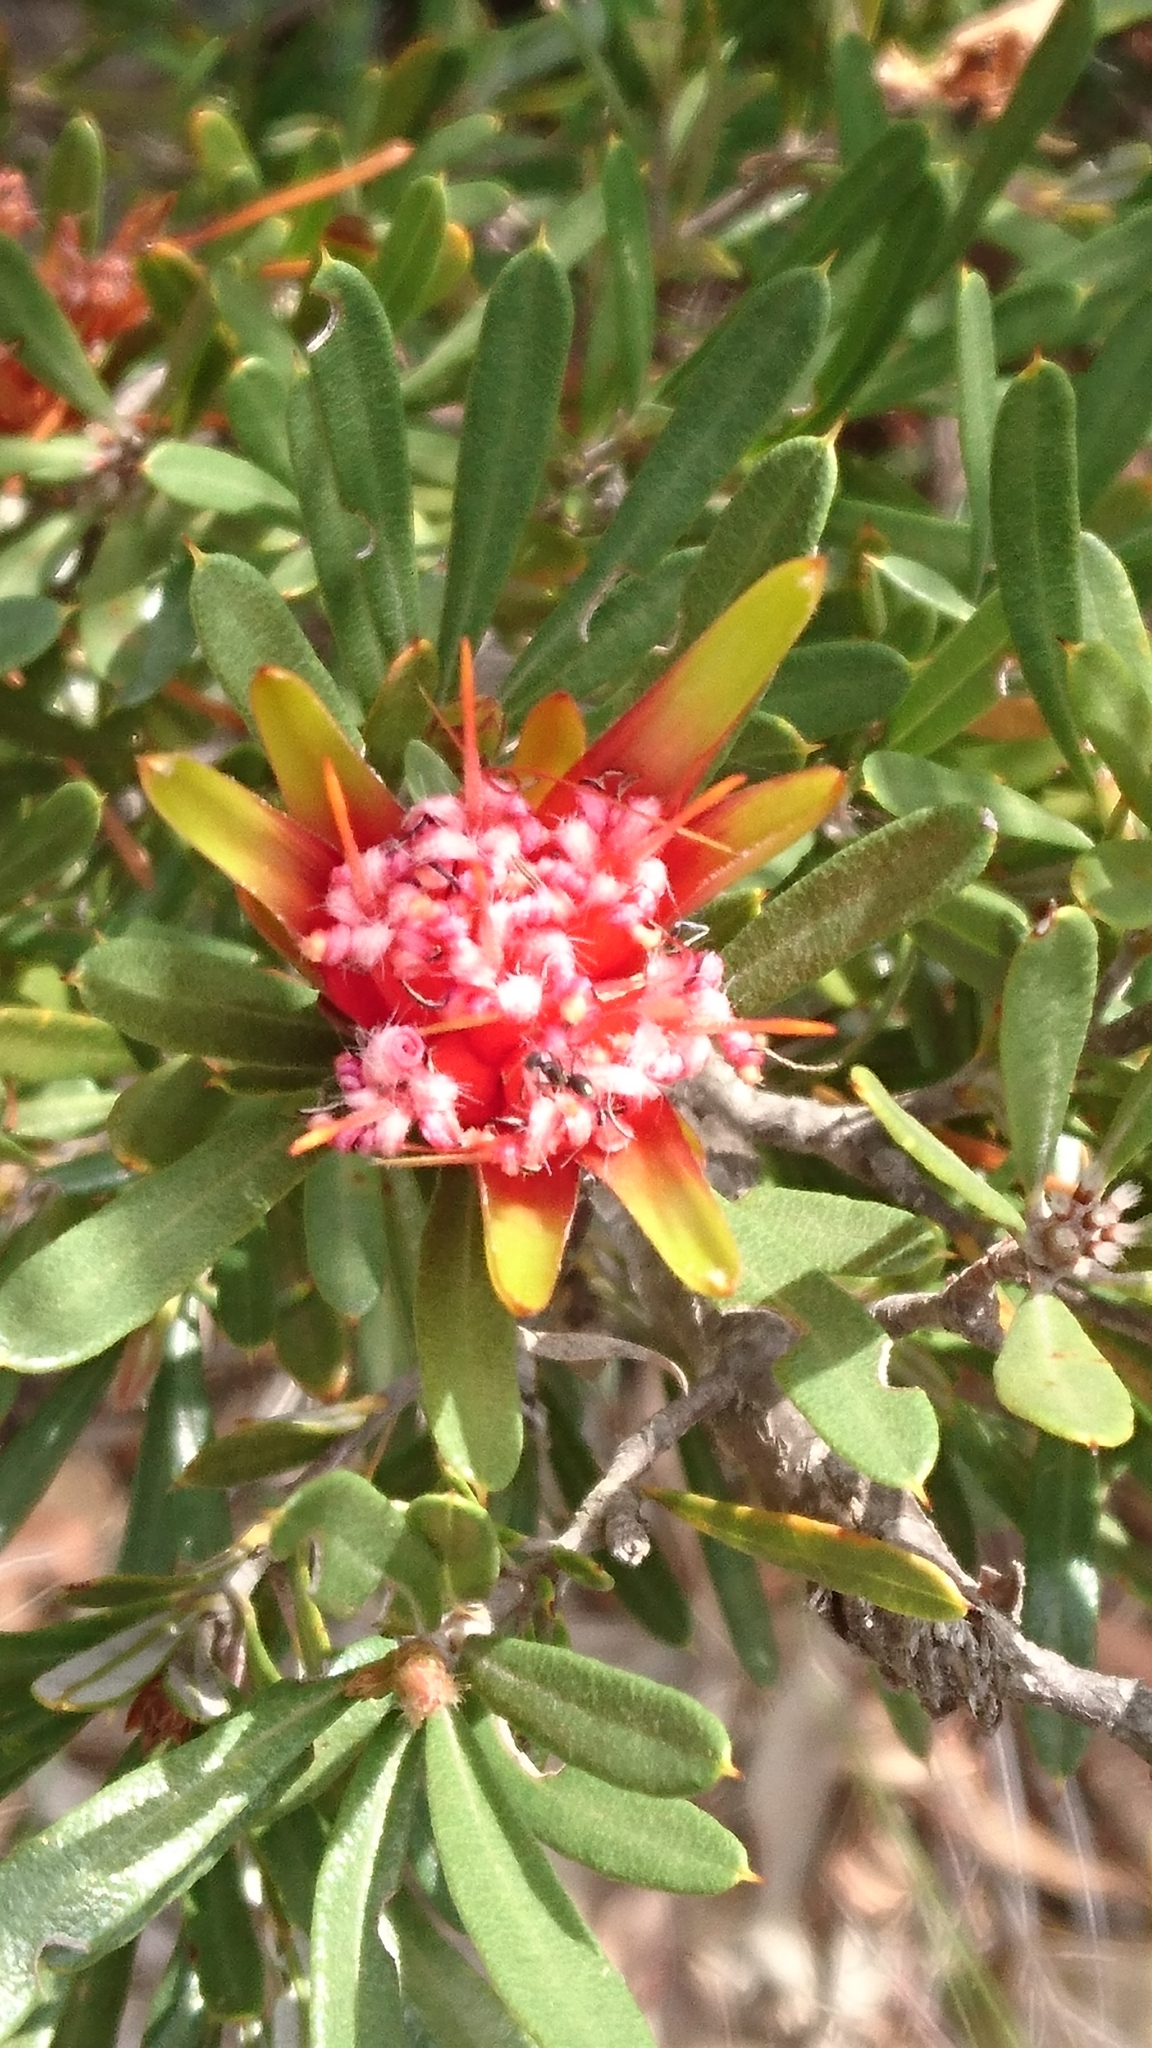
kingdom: Plantae
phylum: Tracheophyta
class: Magnoliopsida
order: Proteales
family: Proteaceae
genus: Lambertia
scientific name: Lambertia formosa
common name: Mountain-devil
